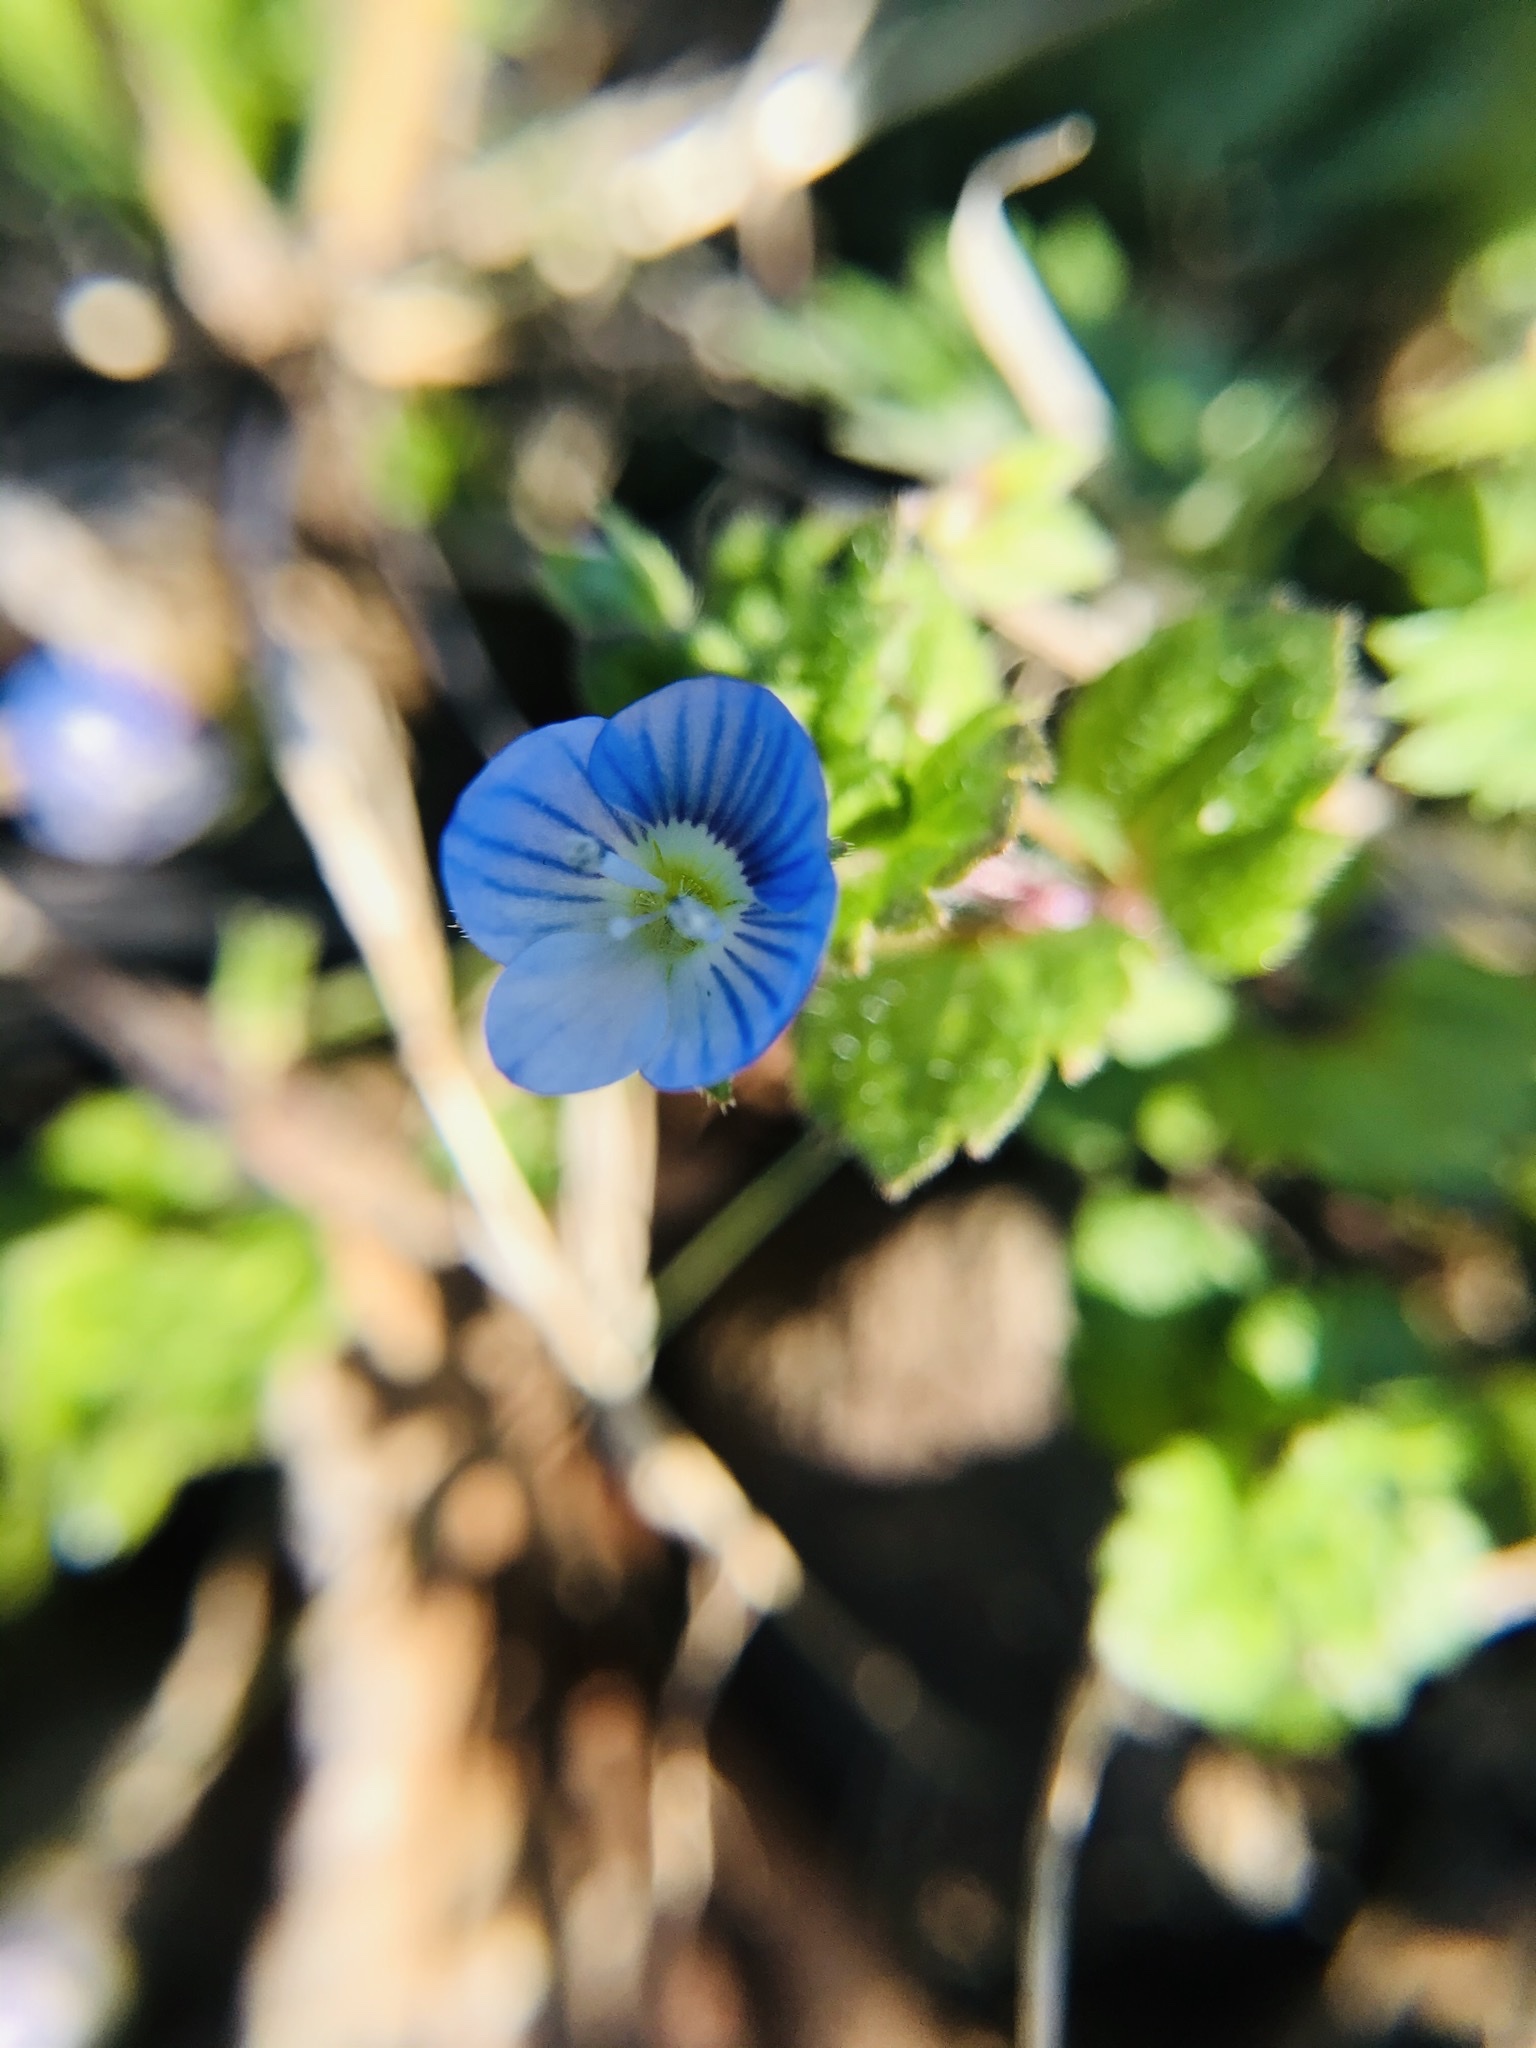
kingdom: Plantae
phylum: Tracheophyta
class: Magnoliopsida
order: Lamiales
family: Plantaginaceae
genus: Veronica
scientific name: Veronica persica
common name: Common field-speedwell
